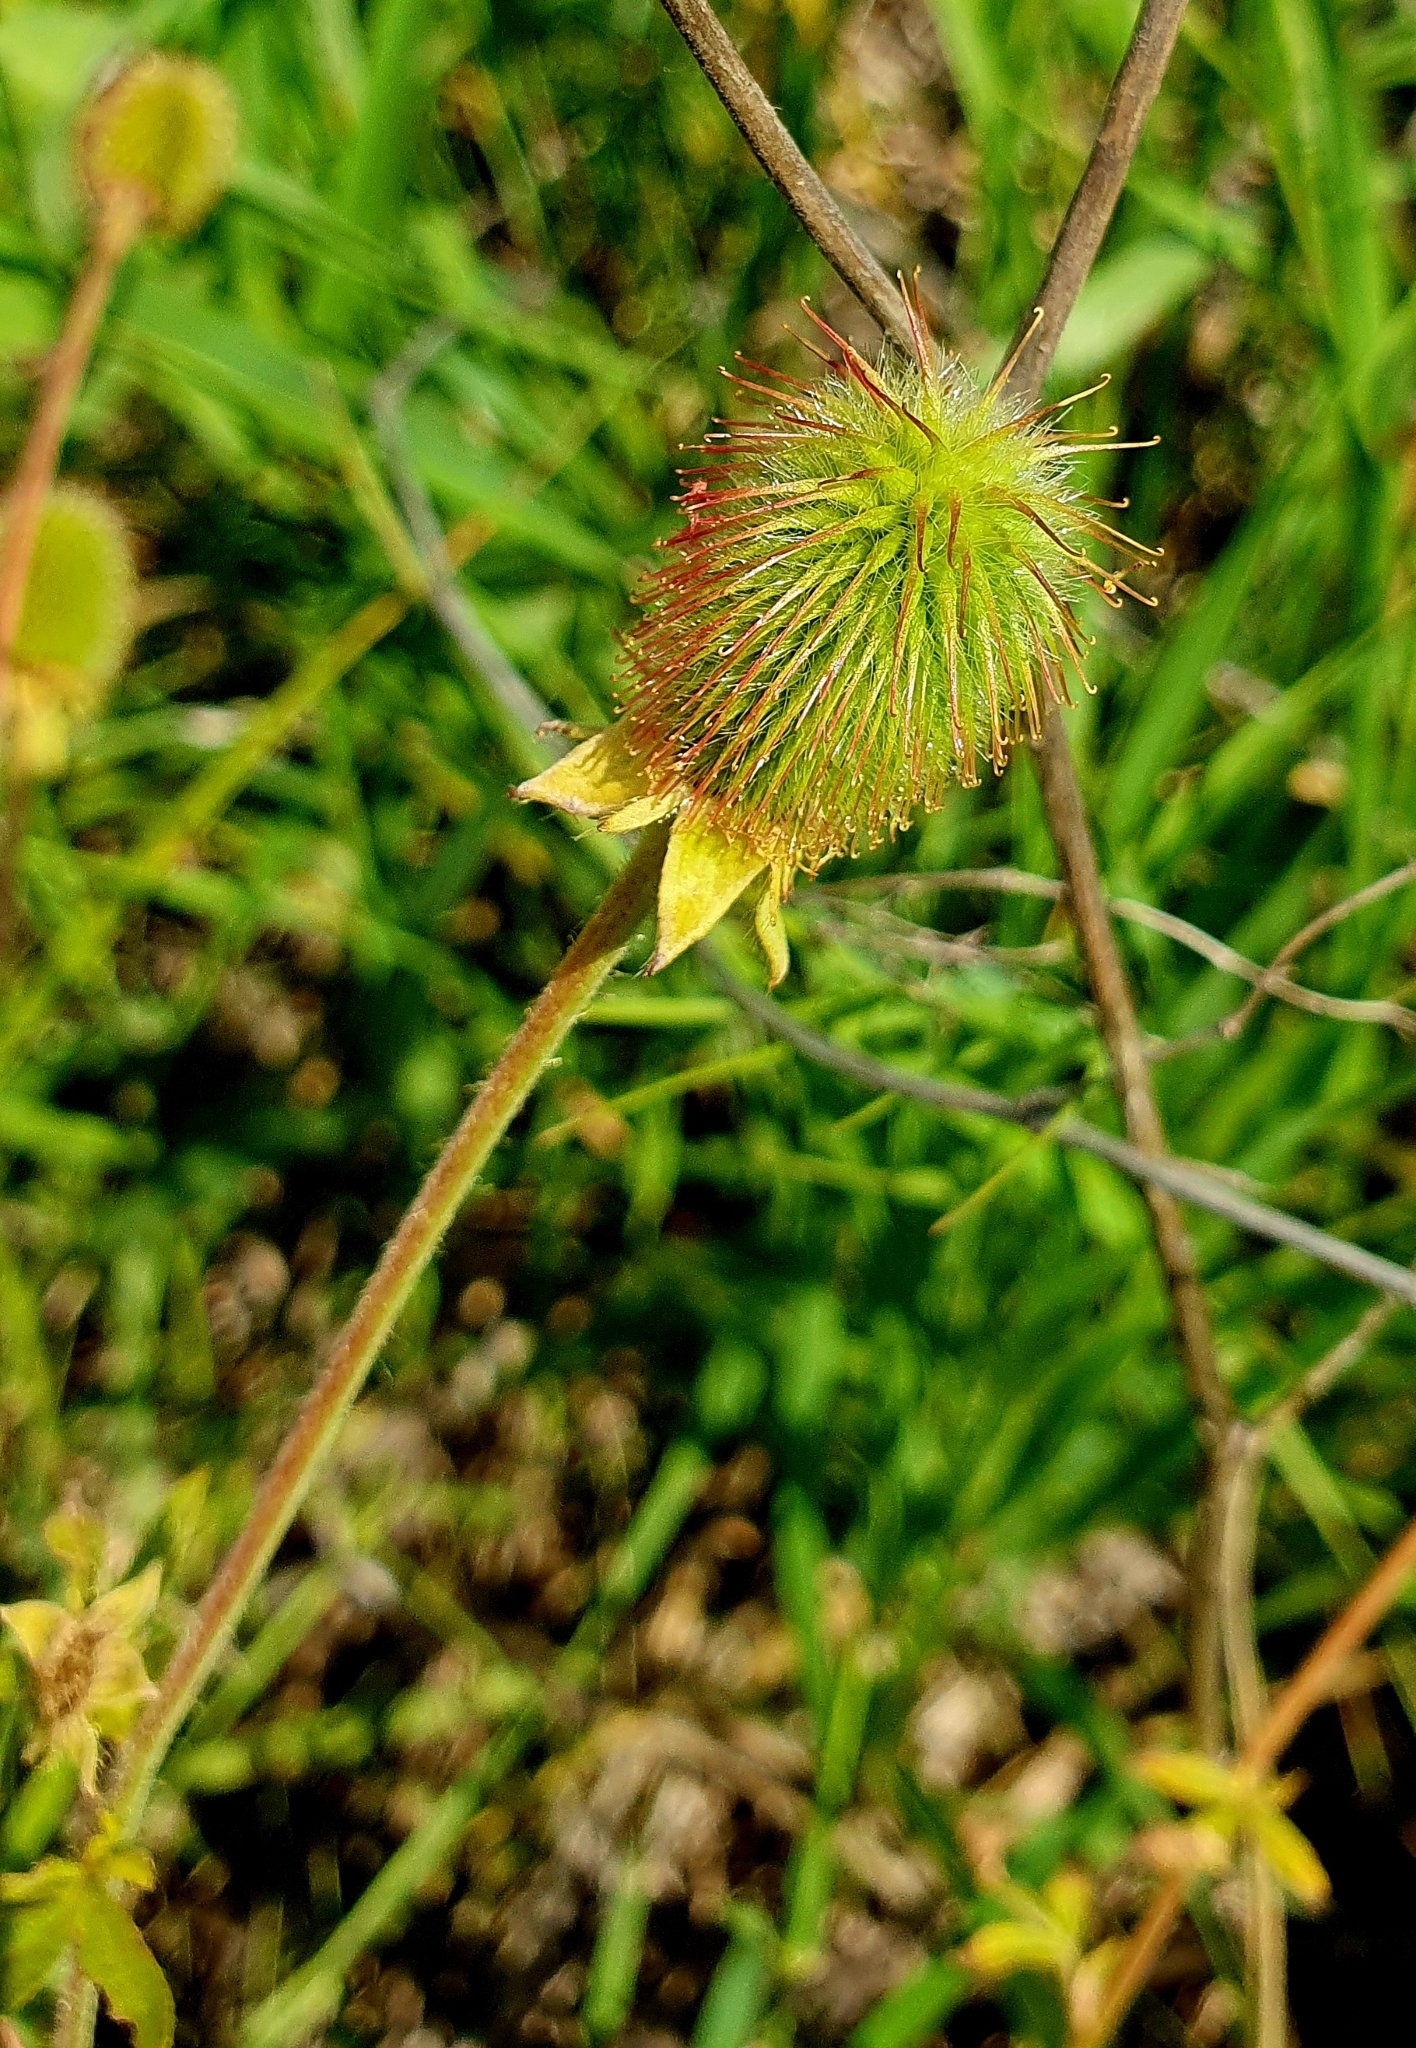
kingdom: Plantae
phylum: Tracheophyta
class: Magnoliopsida
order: Rosales
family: Rosaceae
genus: Geum
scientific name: Geum aleppicum
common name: Yellow avens
